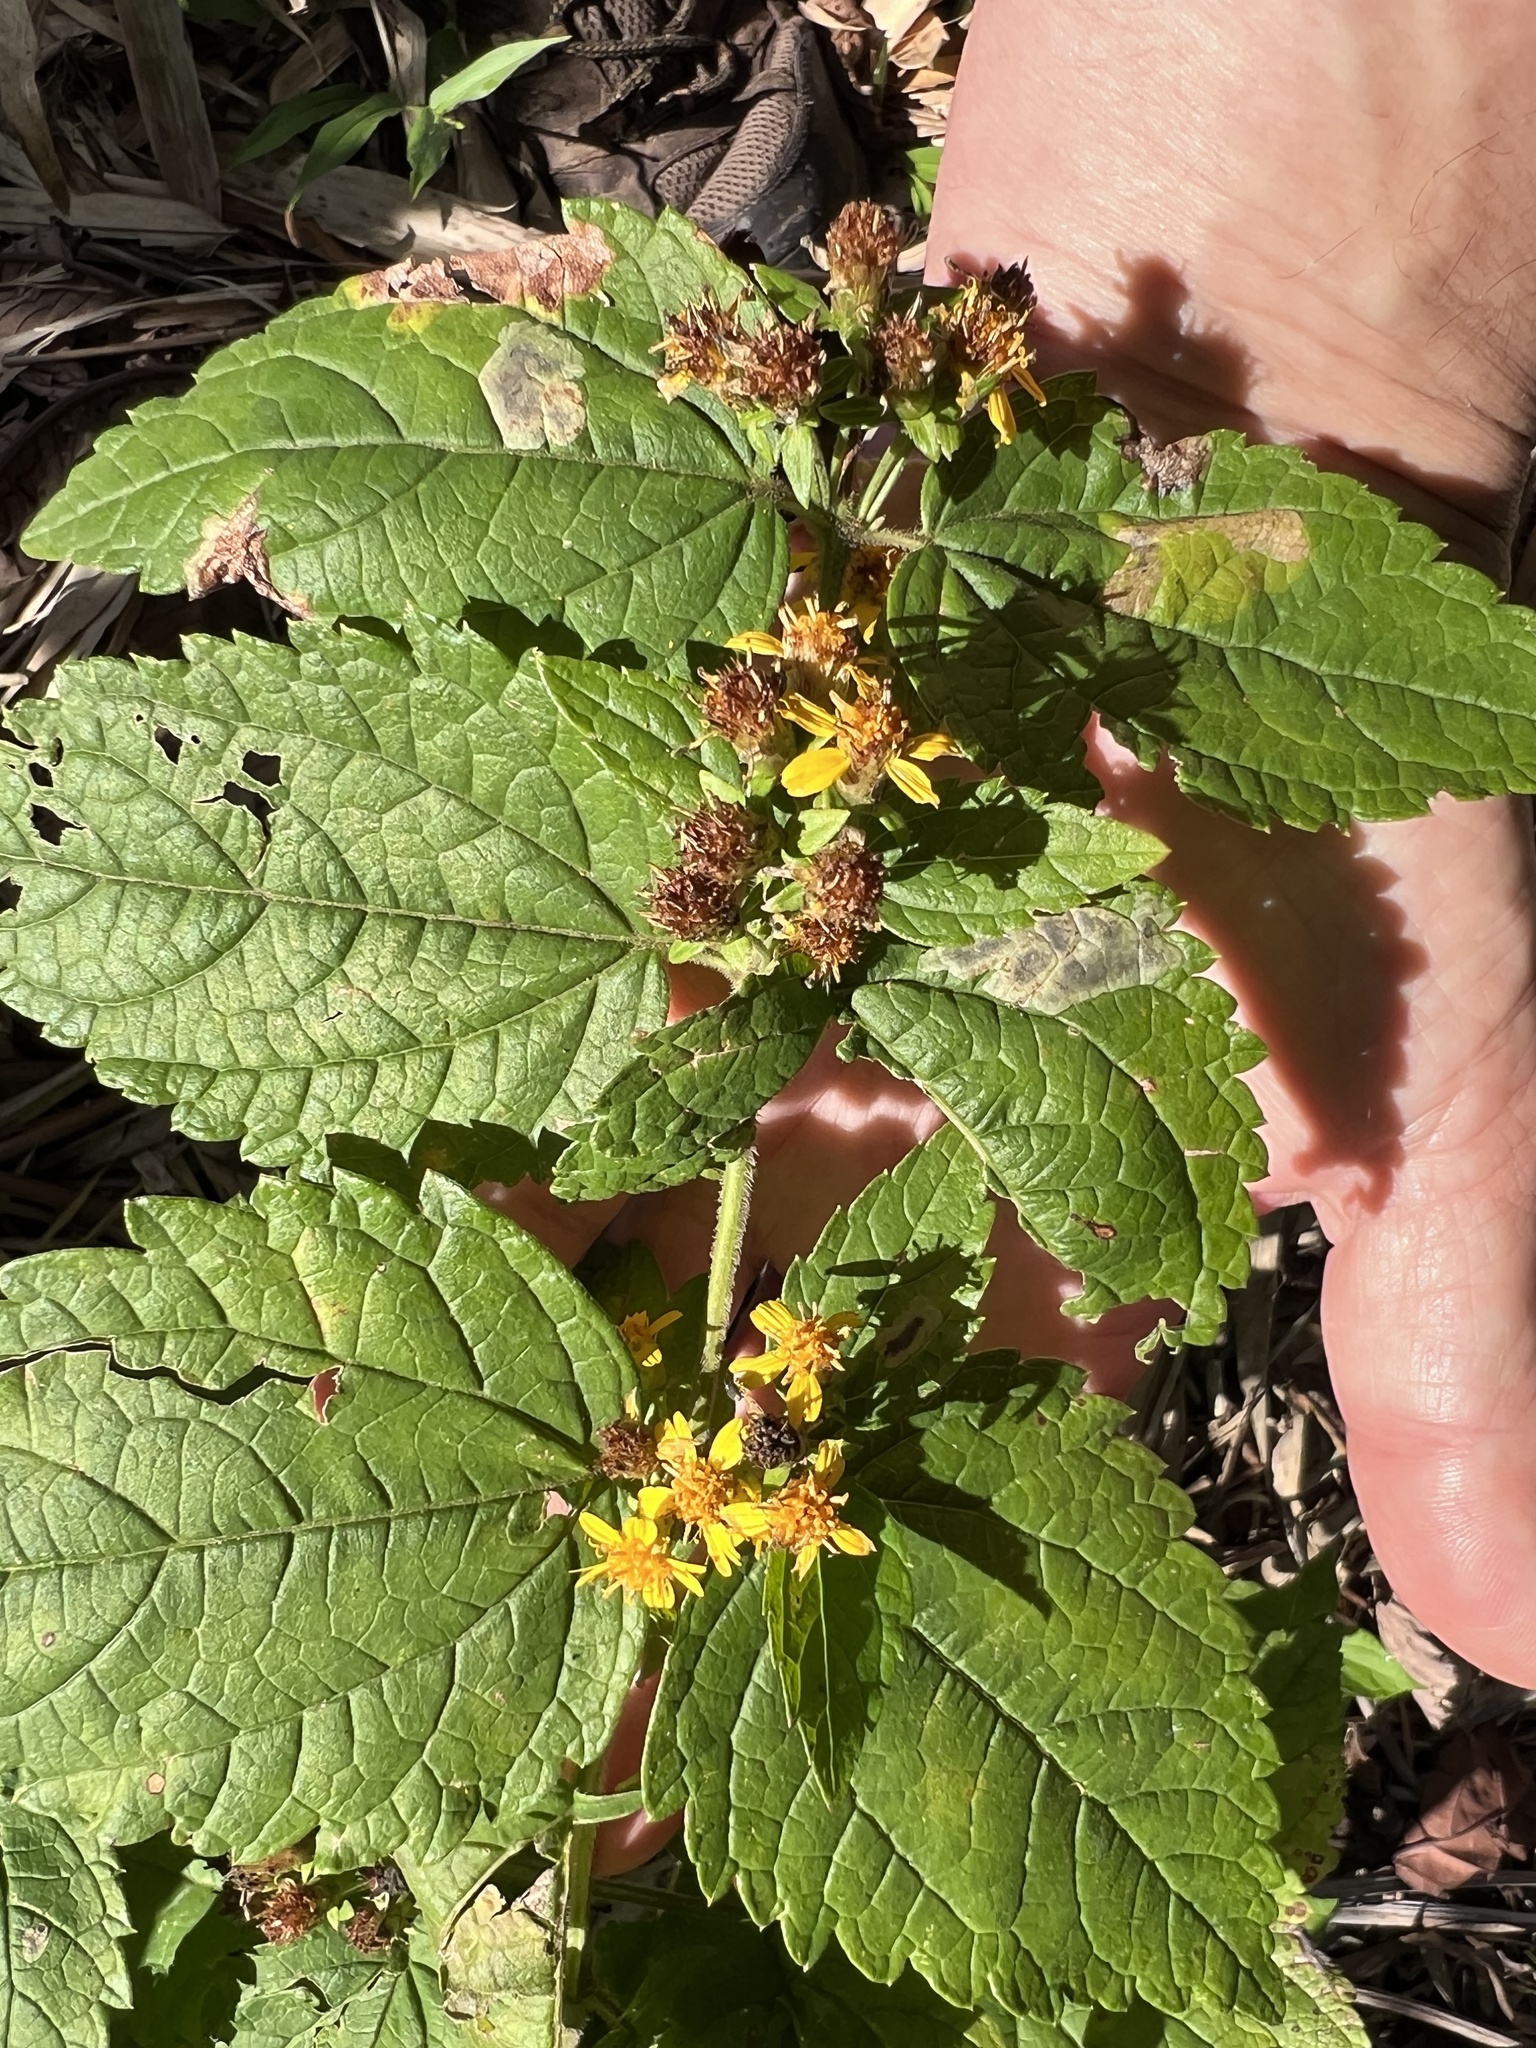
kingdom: Plantae
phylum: Tracheophyta
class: Magnoliopsida
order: Asterales
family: Asteraceae
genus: Calea
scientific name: Calea urticifolia
